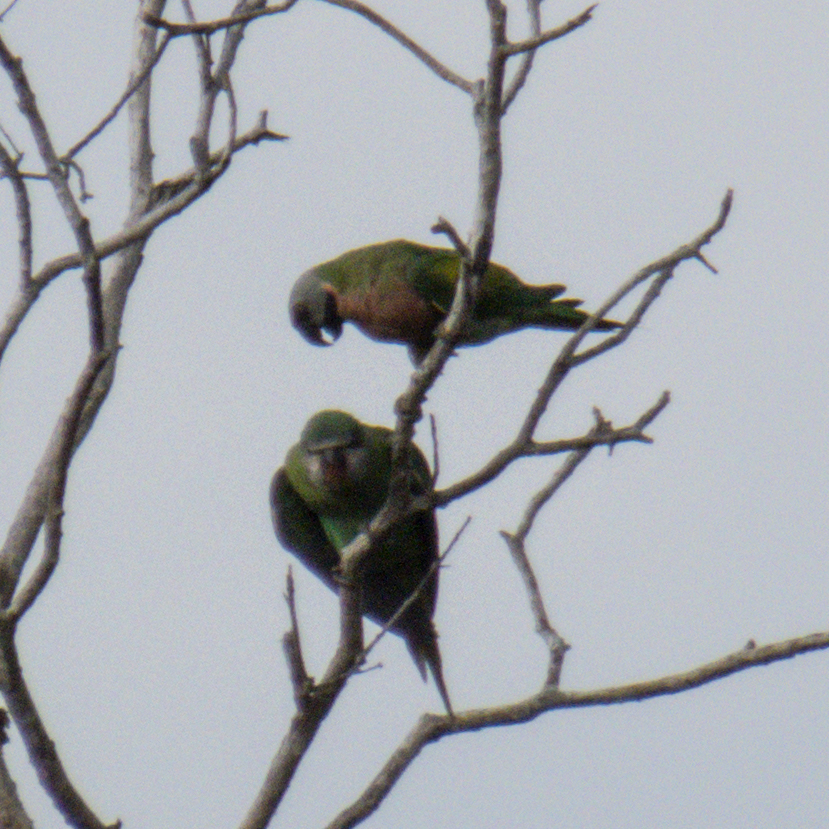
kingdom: Animalia
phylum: Chordata
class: Aves
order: Psittaciformes
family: Psittacidae
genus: Psittacula
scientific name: Psittacula alexandri
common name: Red-breasted parakeet
